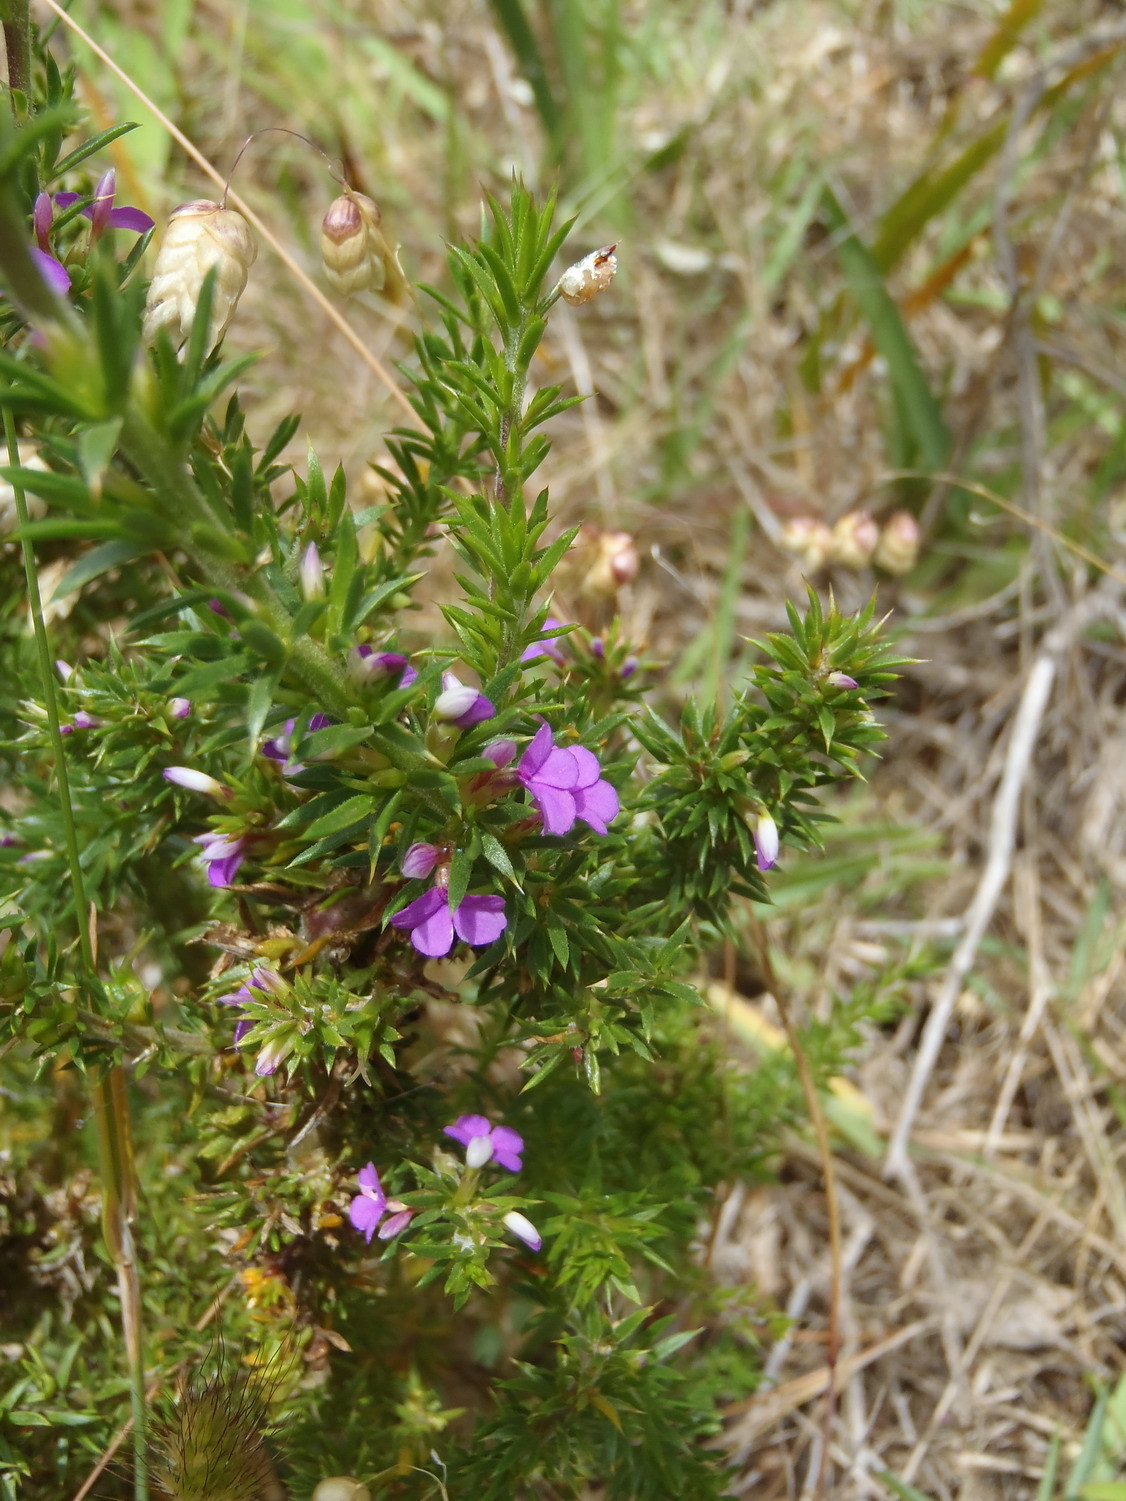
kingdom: Plantae
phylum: Tracheophyta
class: Magnoliopsida
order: Fabales
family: Polygalaceae
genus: Muraltia
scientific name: Muraltia heisteria
